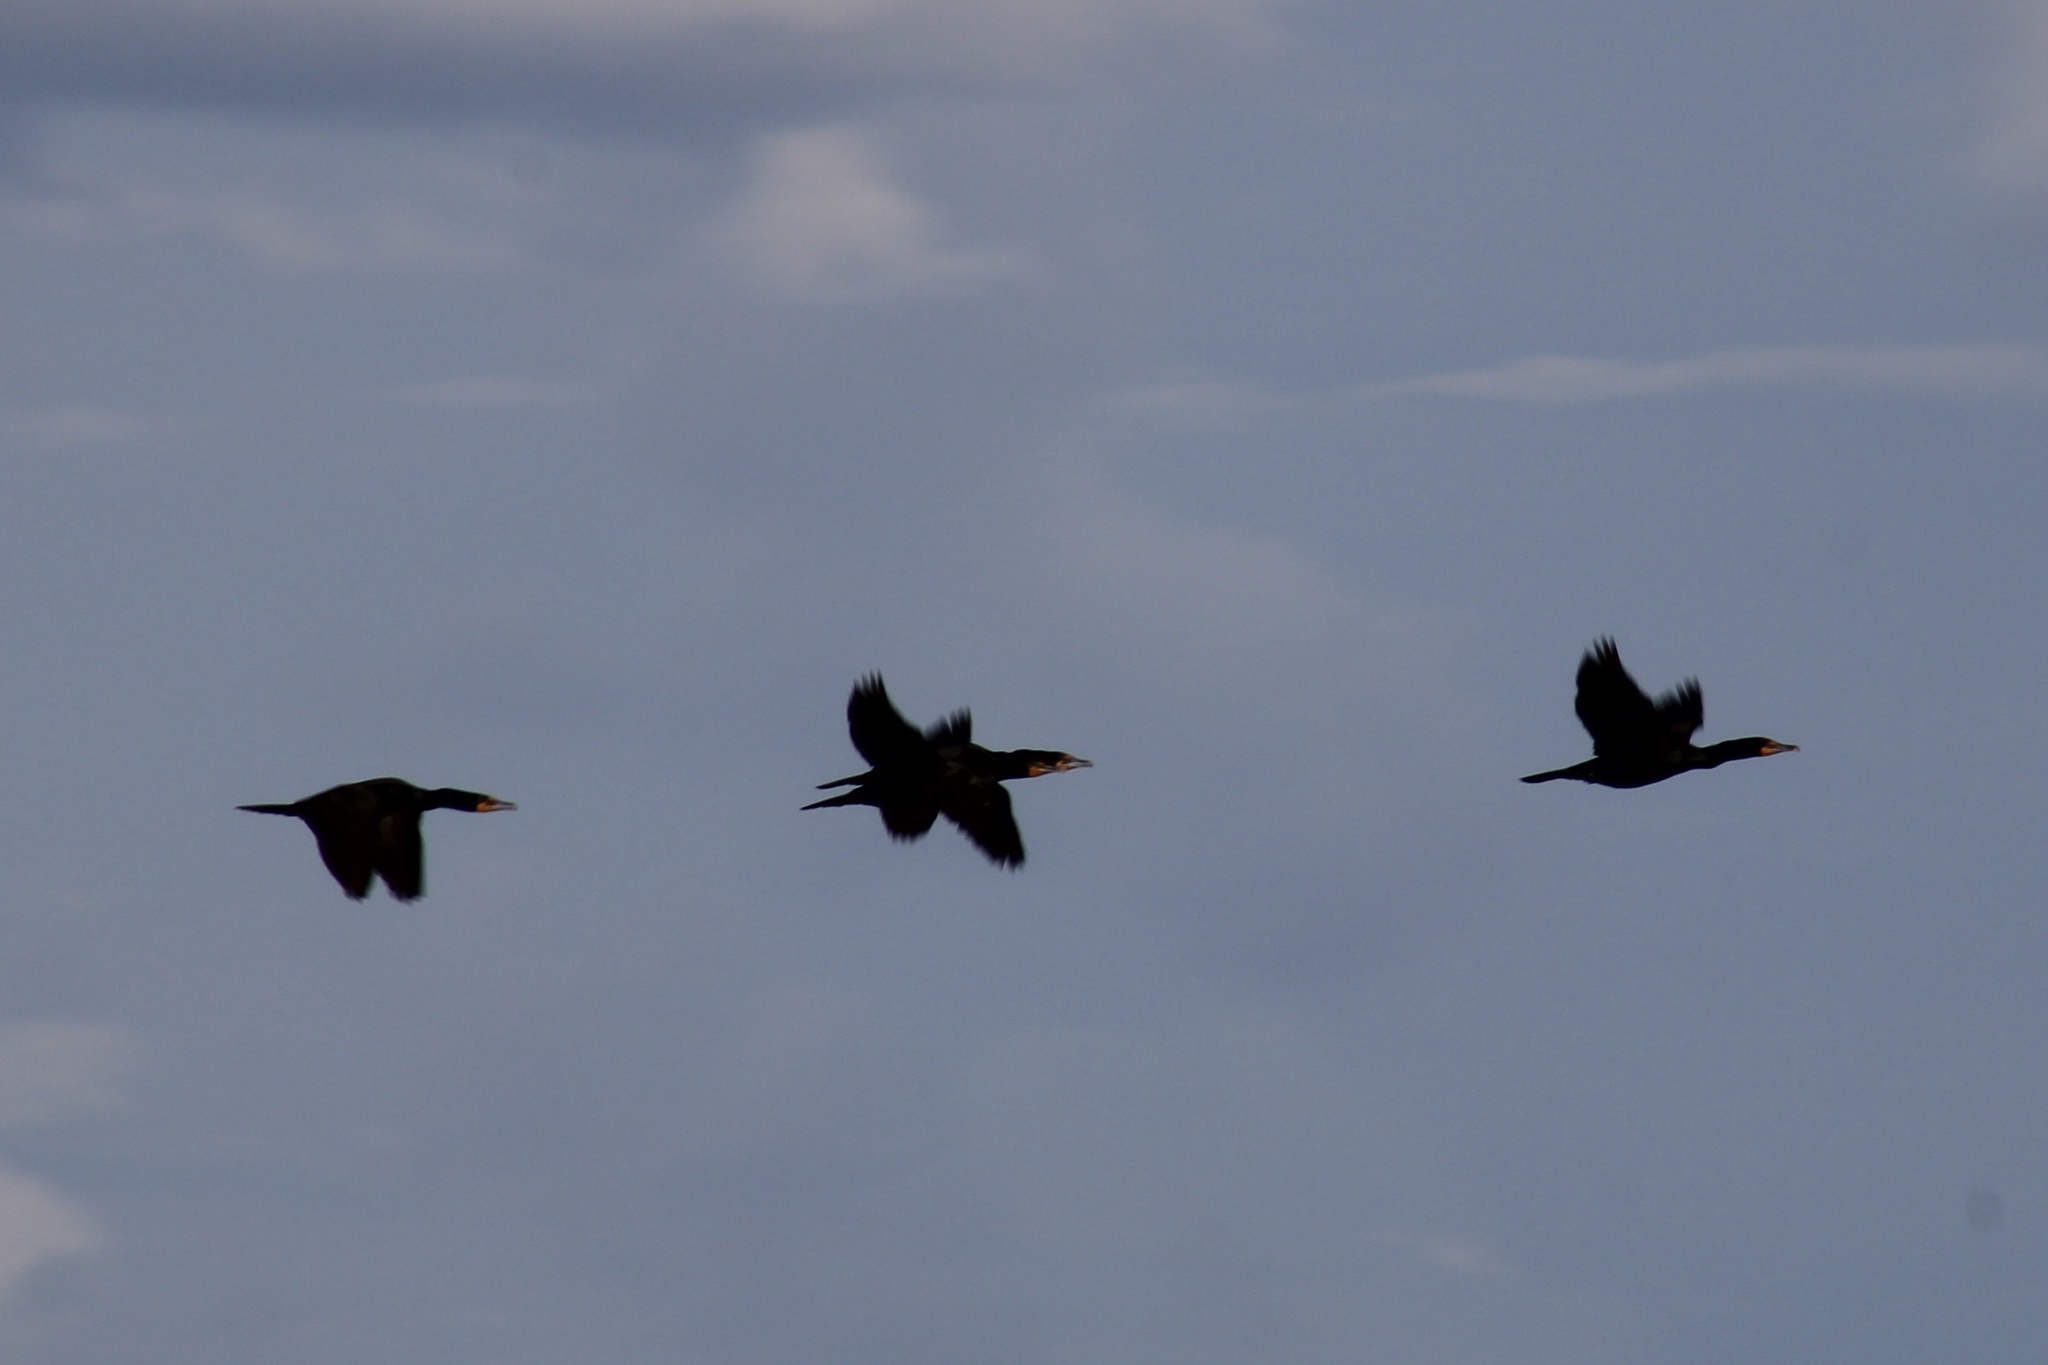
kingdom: Animalia
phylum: Chordata
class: Aves
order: Suliformes
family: Phalacrocoracidae
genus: Phalacrocorax
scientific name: Phalacrocorax auritus
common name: Double-crested cormorant
